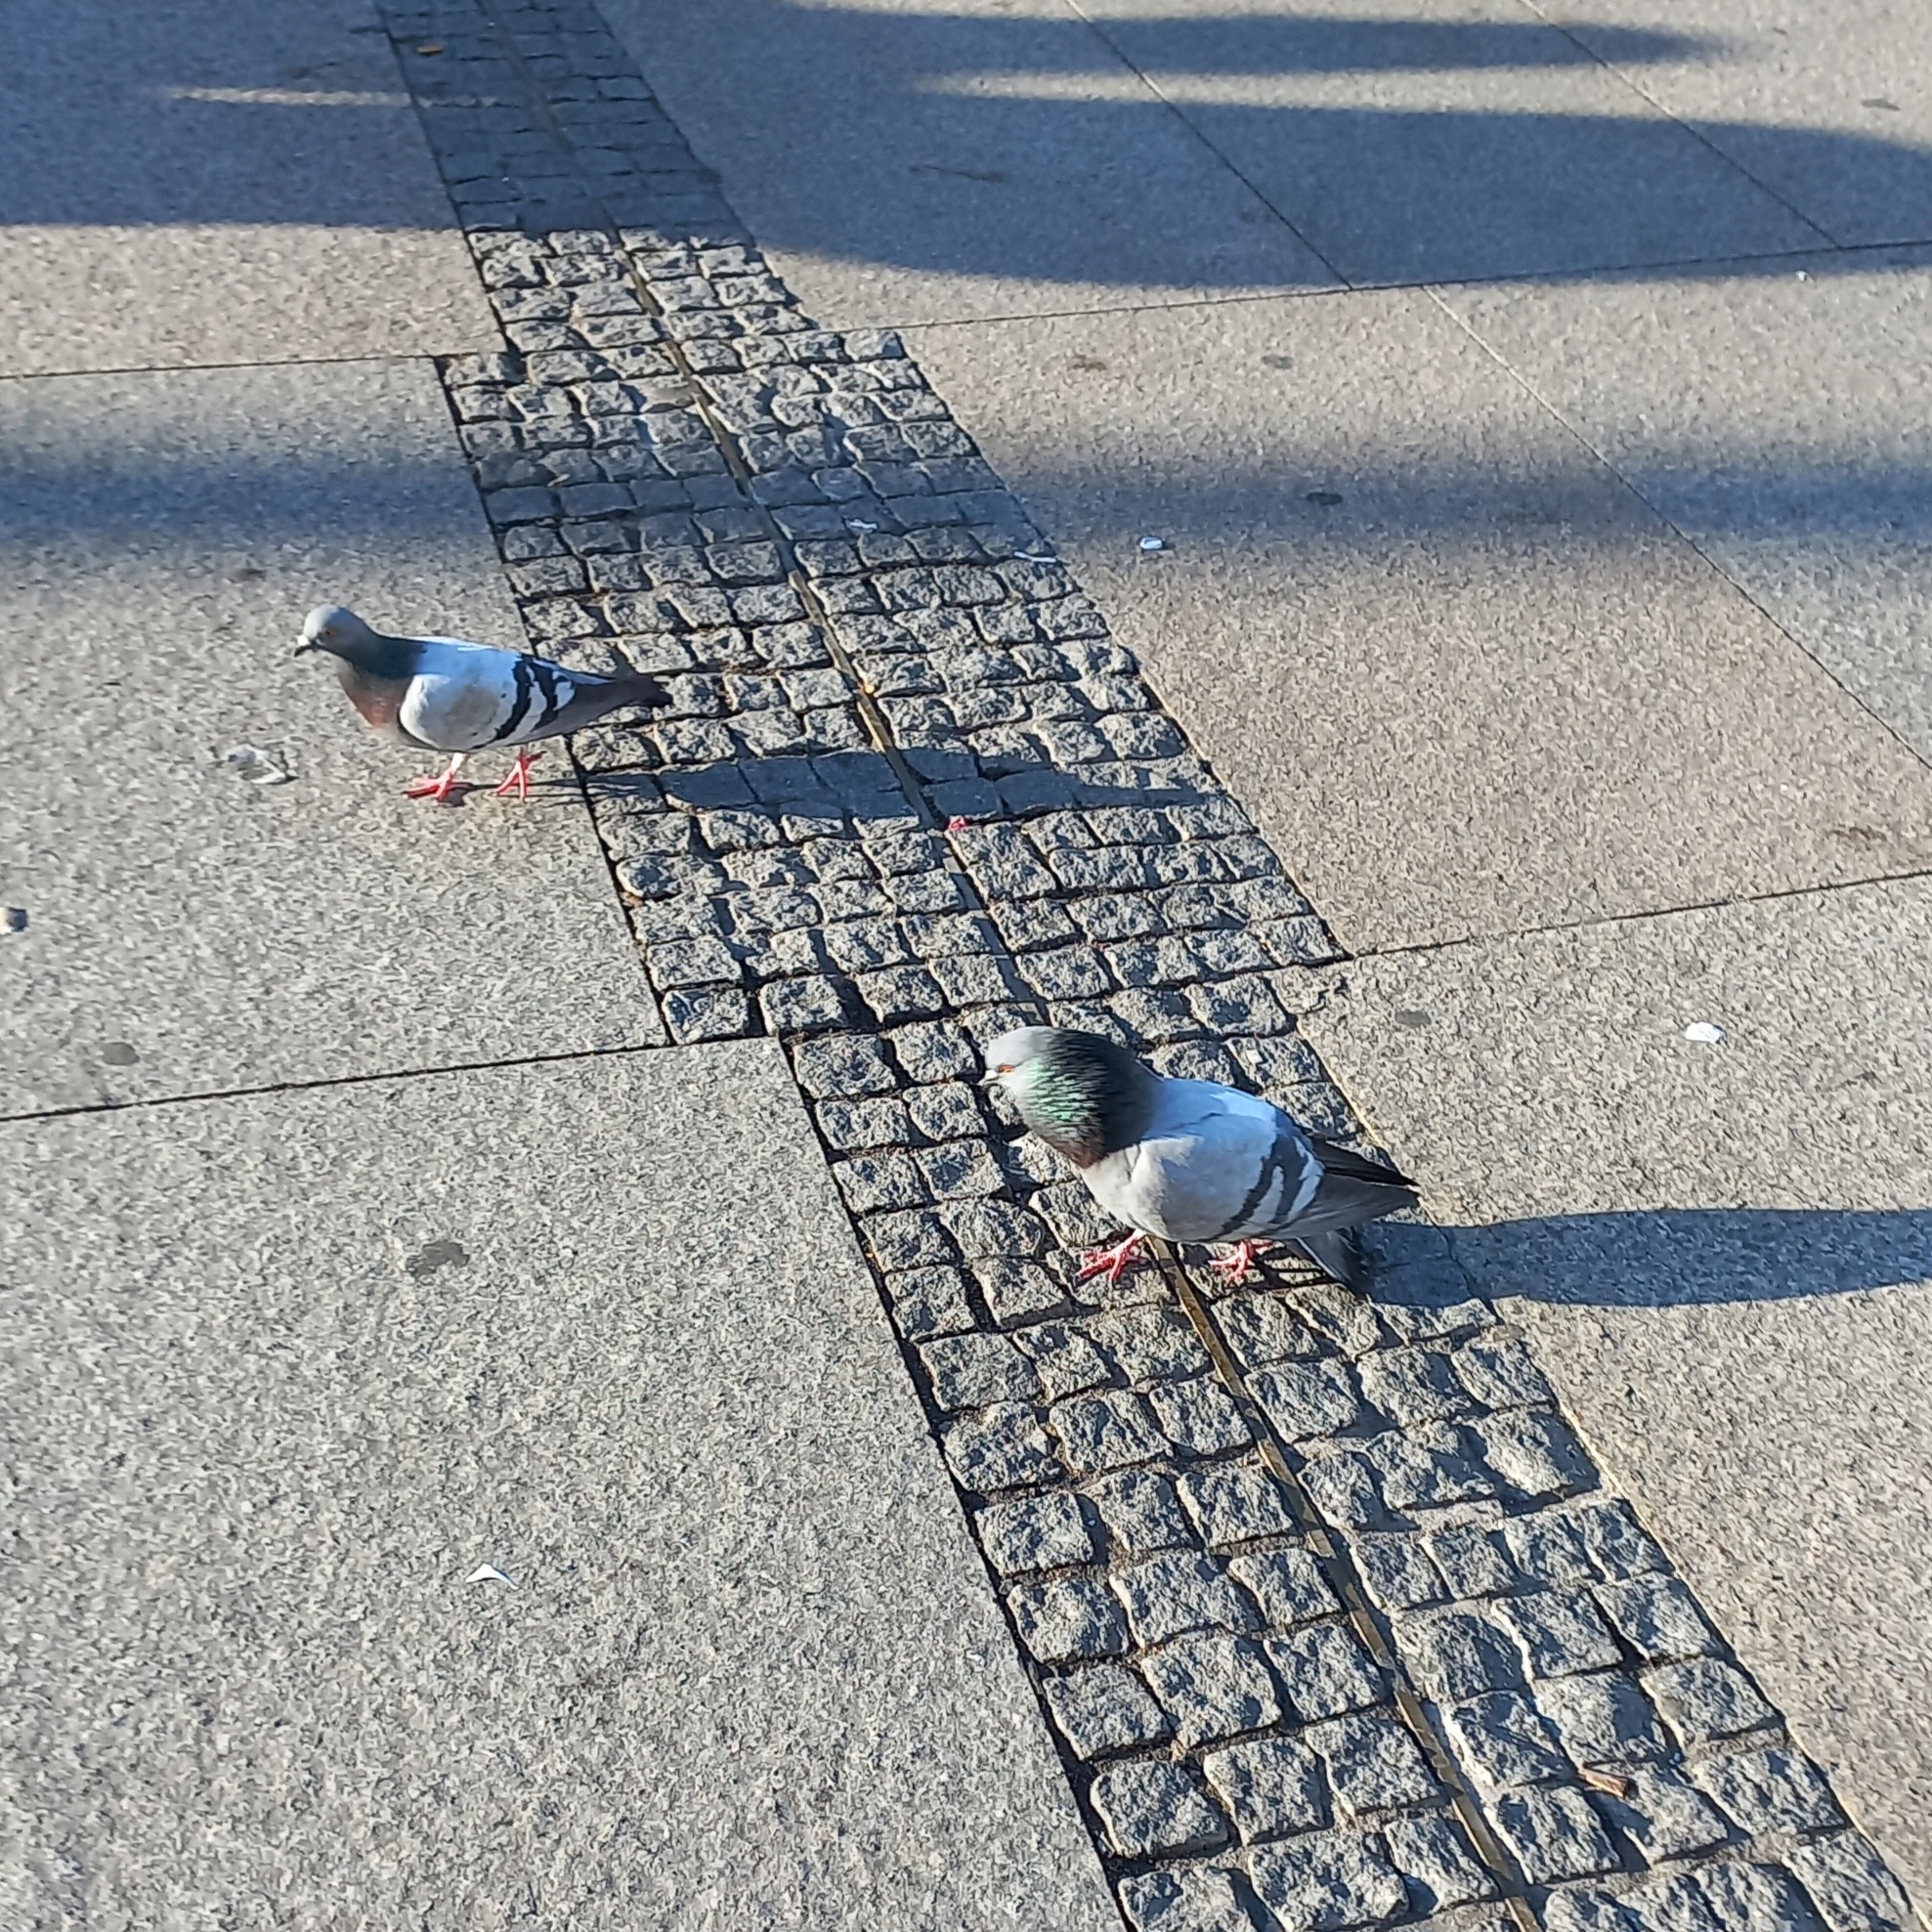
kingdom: Animalia
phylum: Chordata
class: Aves
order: Columbiformes
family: Columbidae
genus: Columba
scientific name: Columba livia
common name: Rock pigeon
